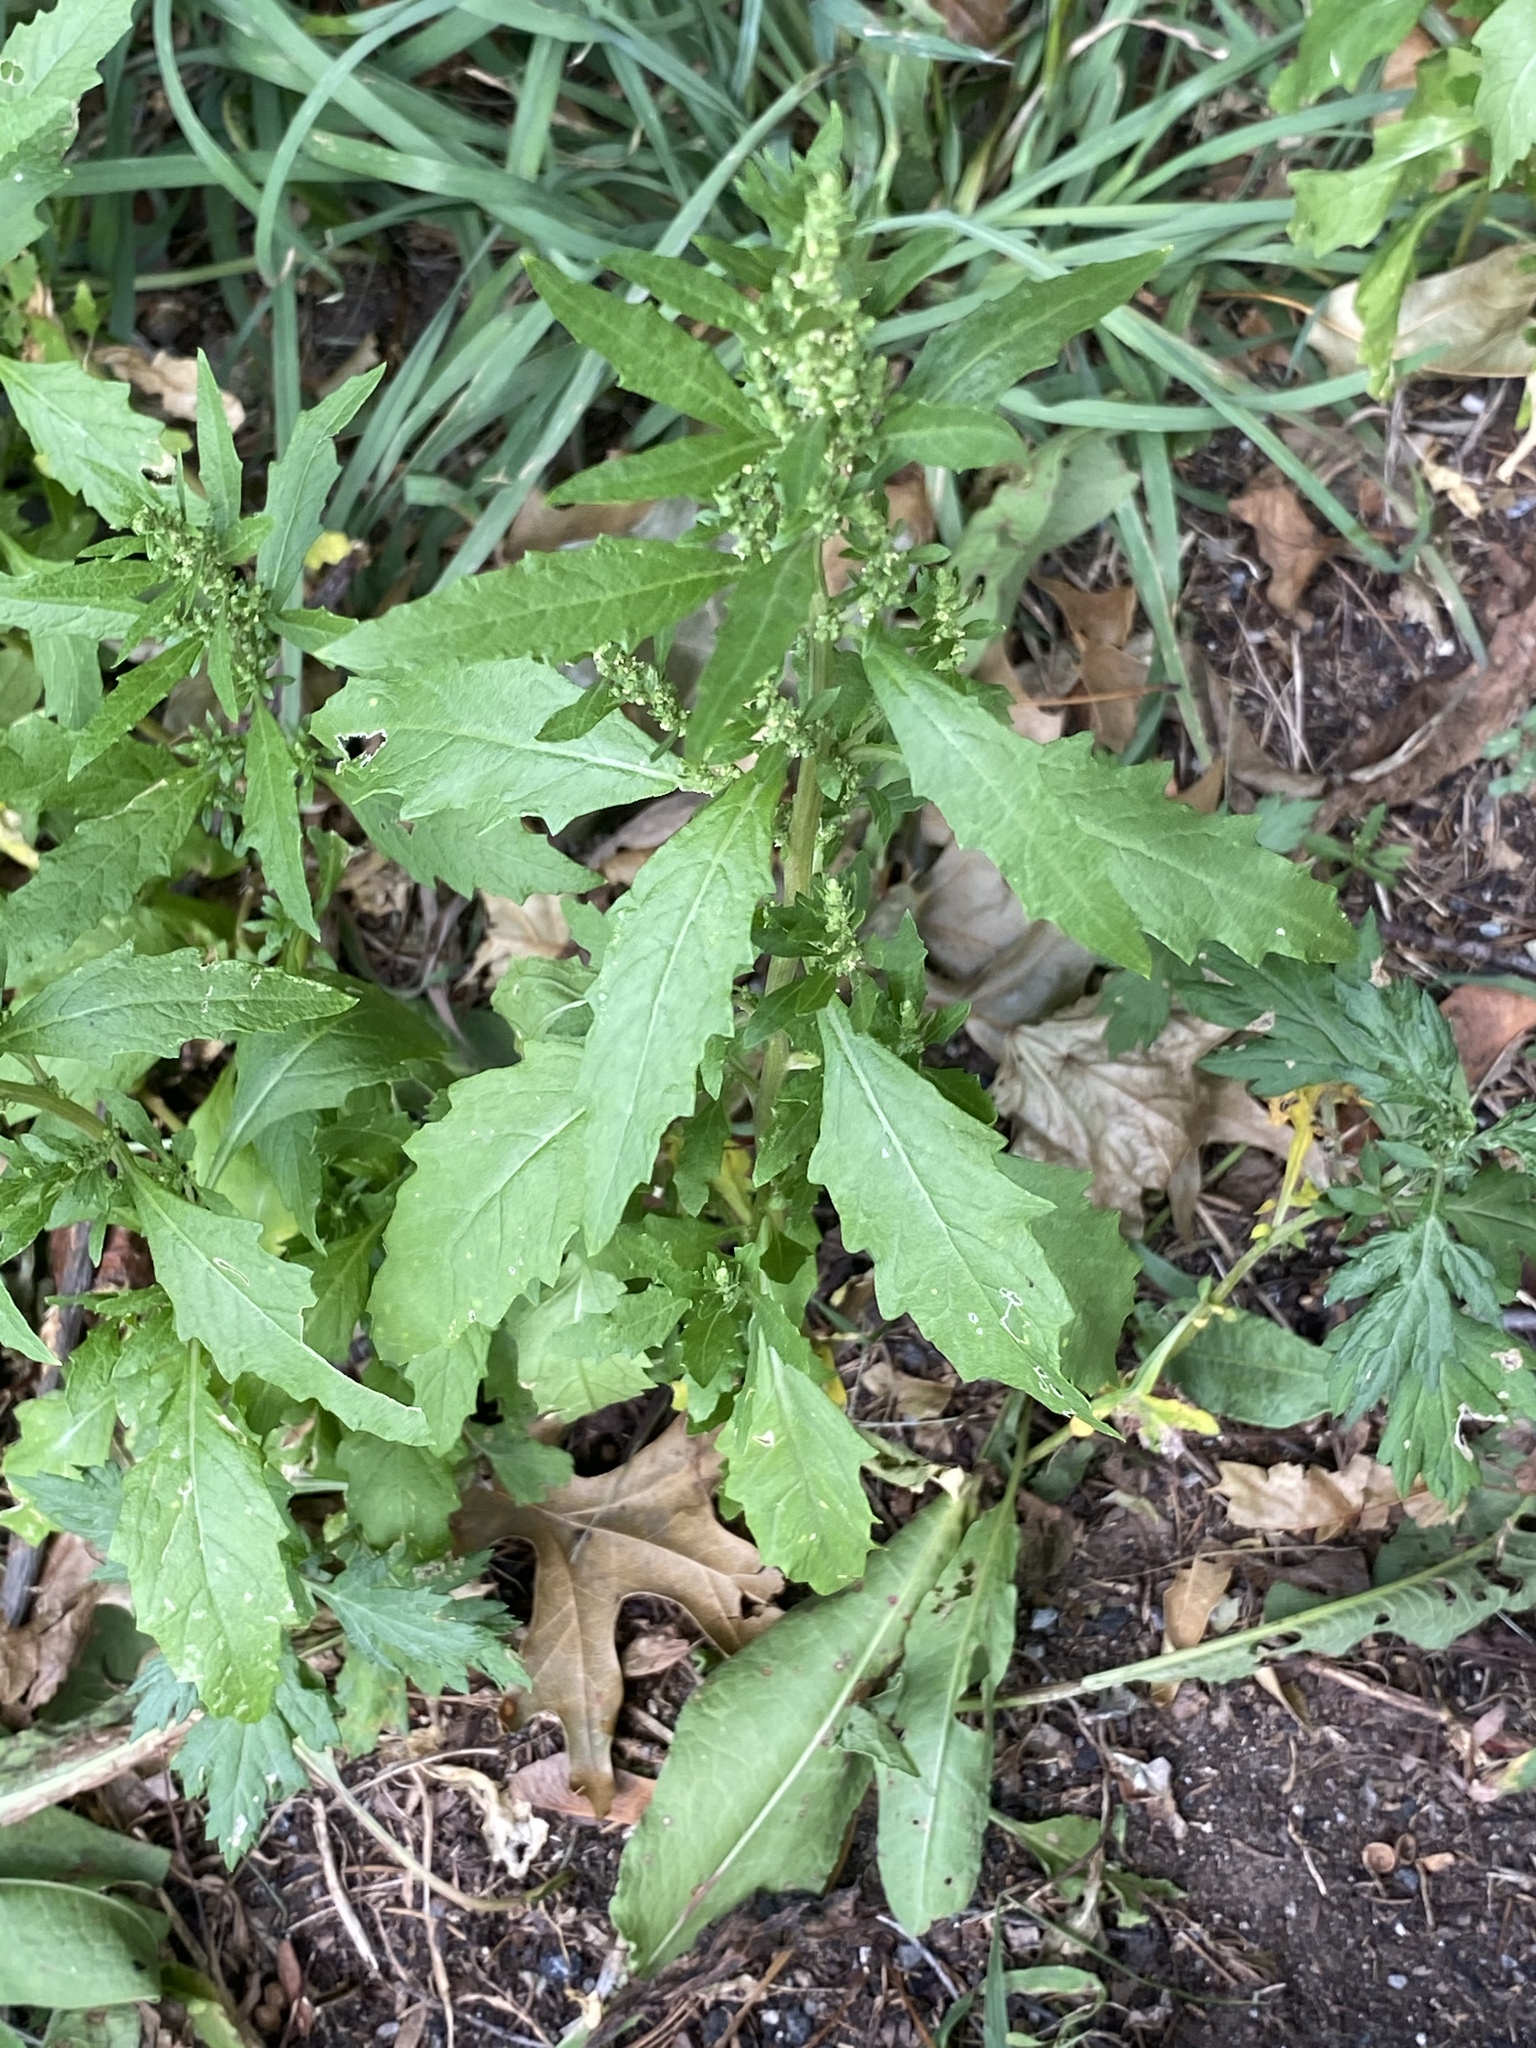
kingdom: Plantae
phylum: Tracheophyta
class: Magnoliopsida
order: Caryophyllales
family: Amaranthaceae
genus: Dysphania
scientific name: Dysphania ambrosioides
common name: Wormseed
